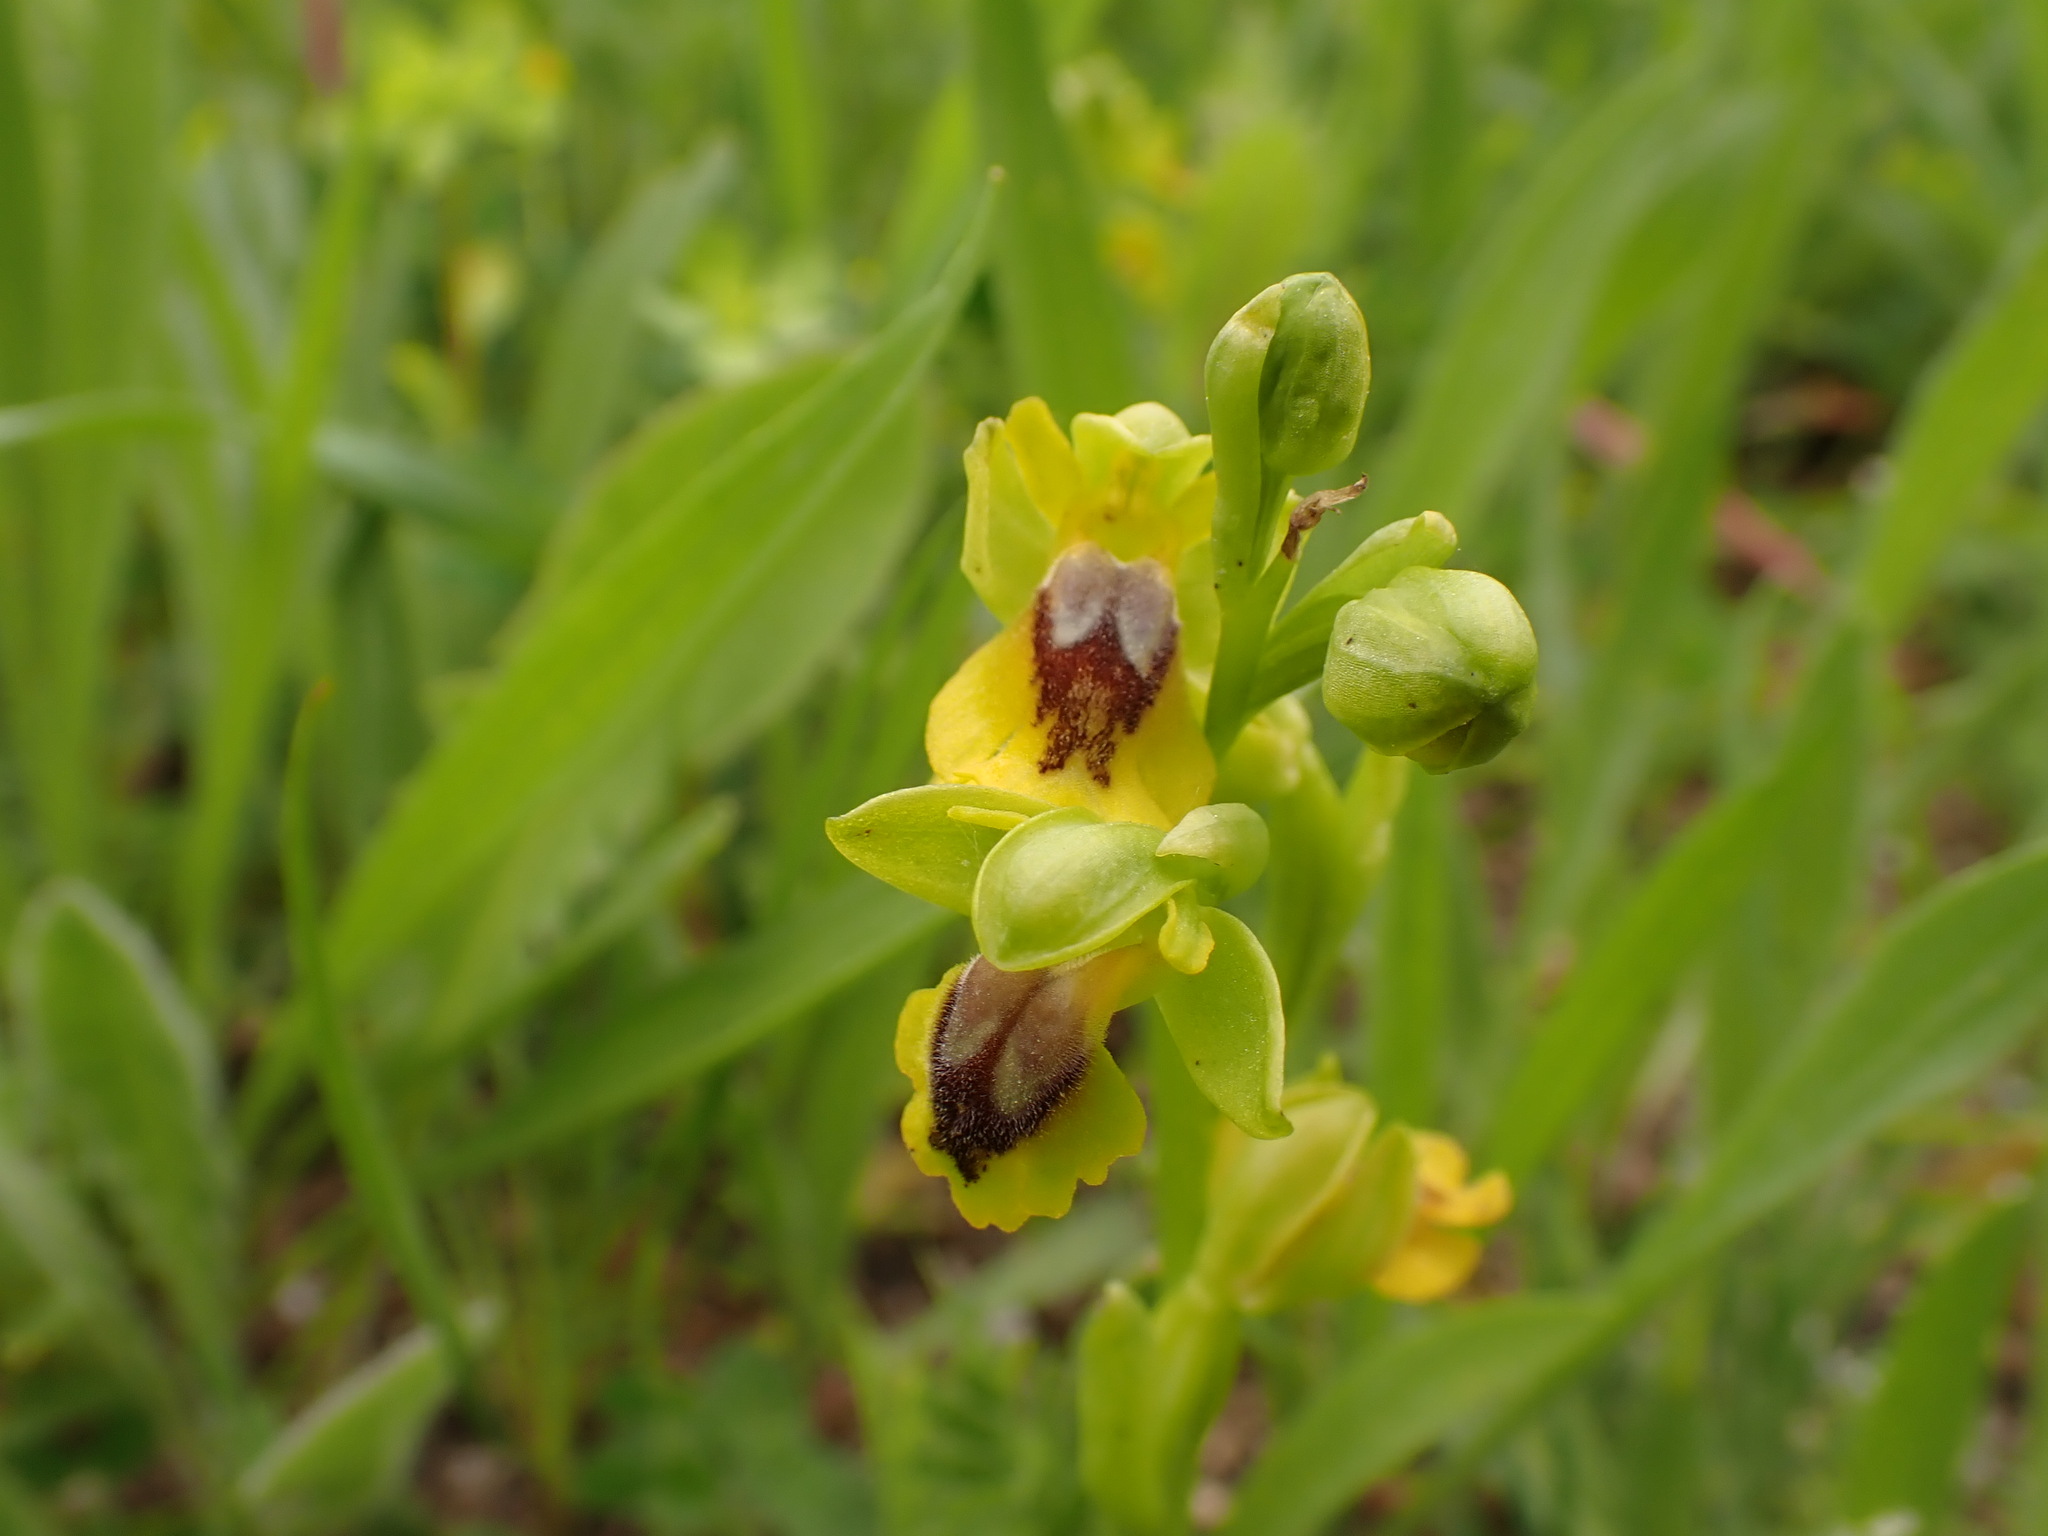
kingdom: Plantae
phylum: Tracheophyta
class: Liliopsida
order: Asparagales
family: Orchidaceae
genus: Ophrys
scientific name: Ophrys lutea
